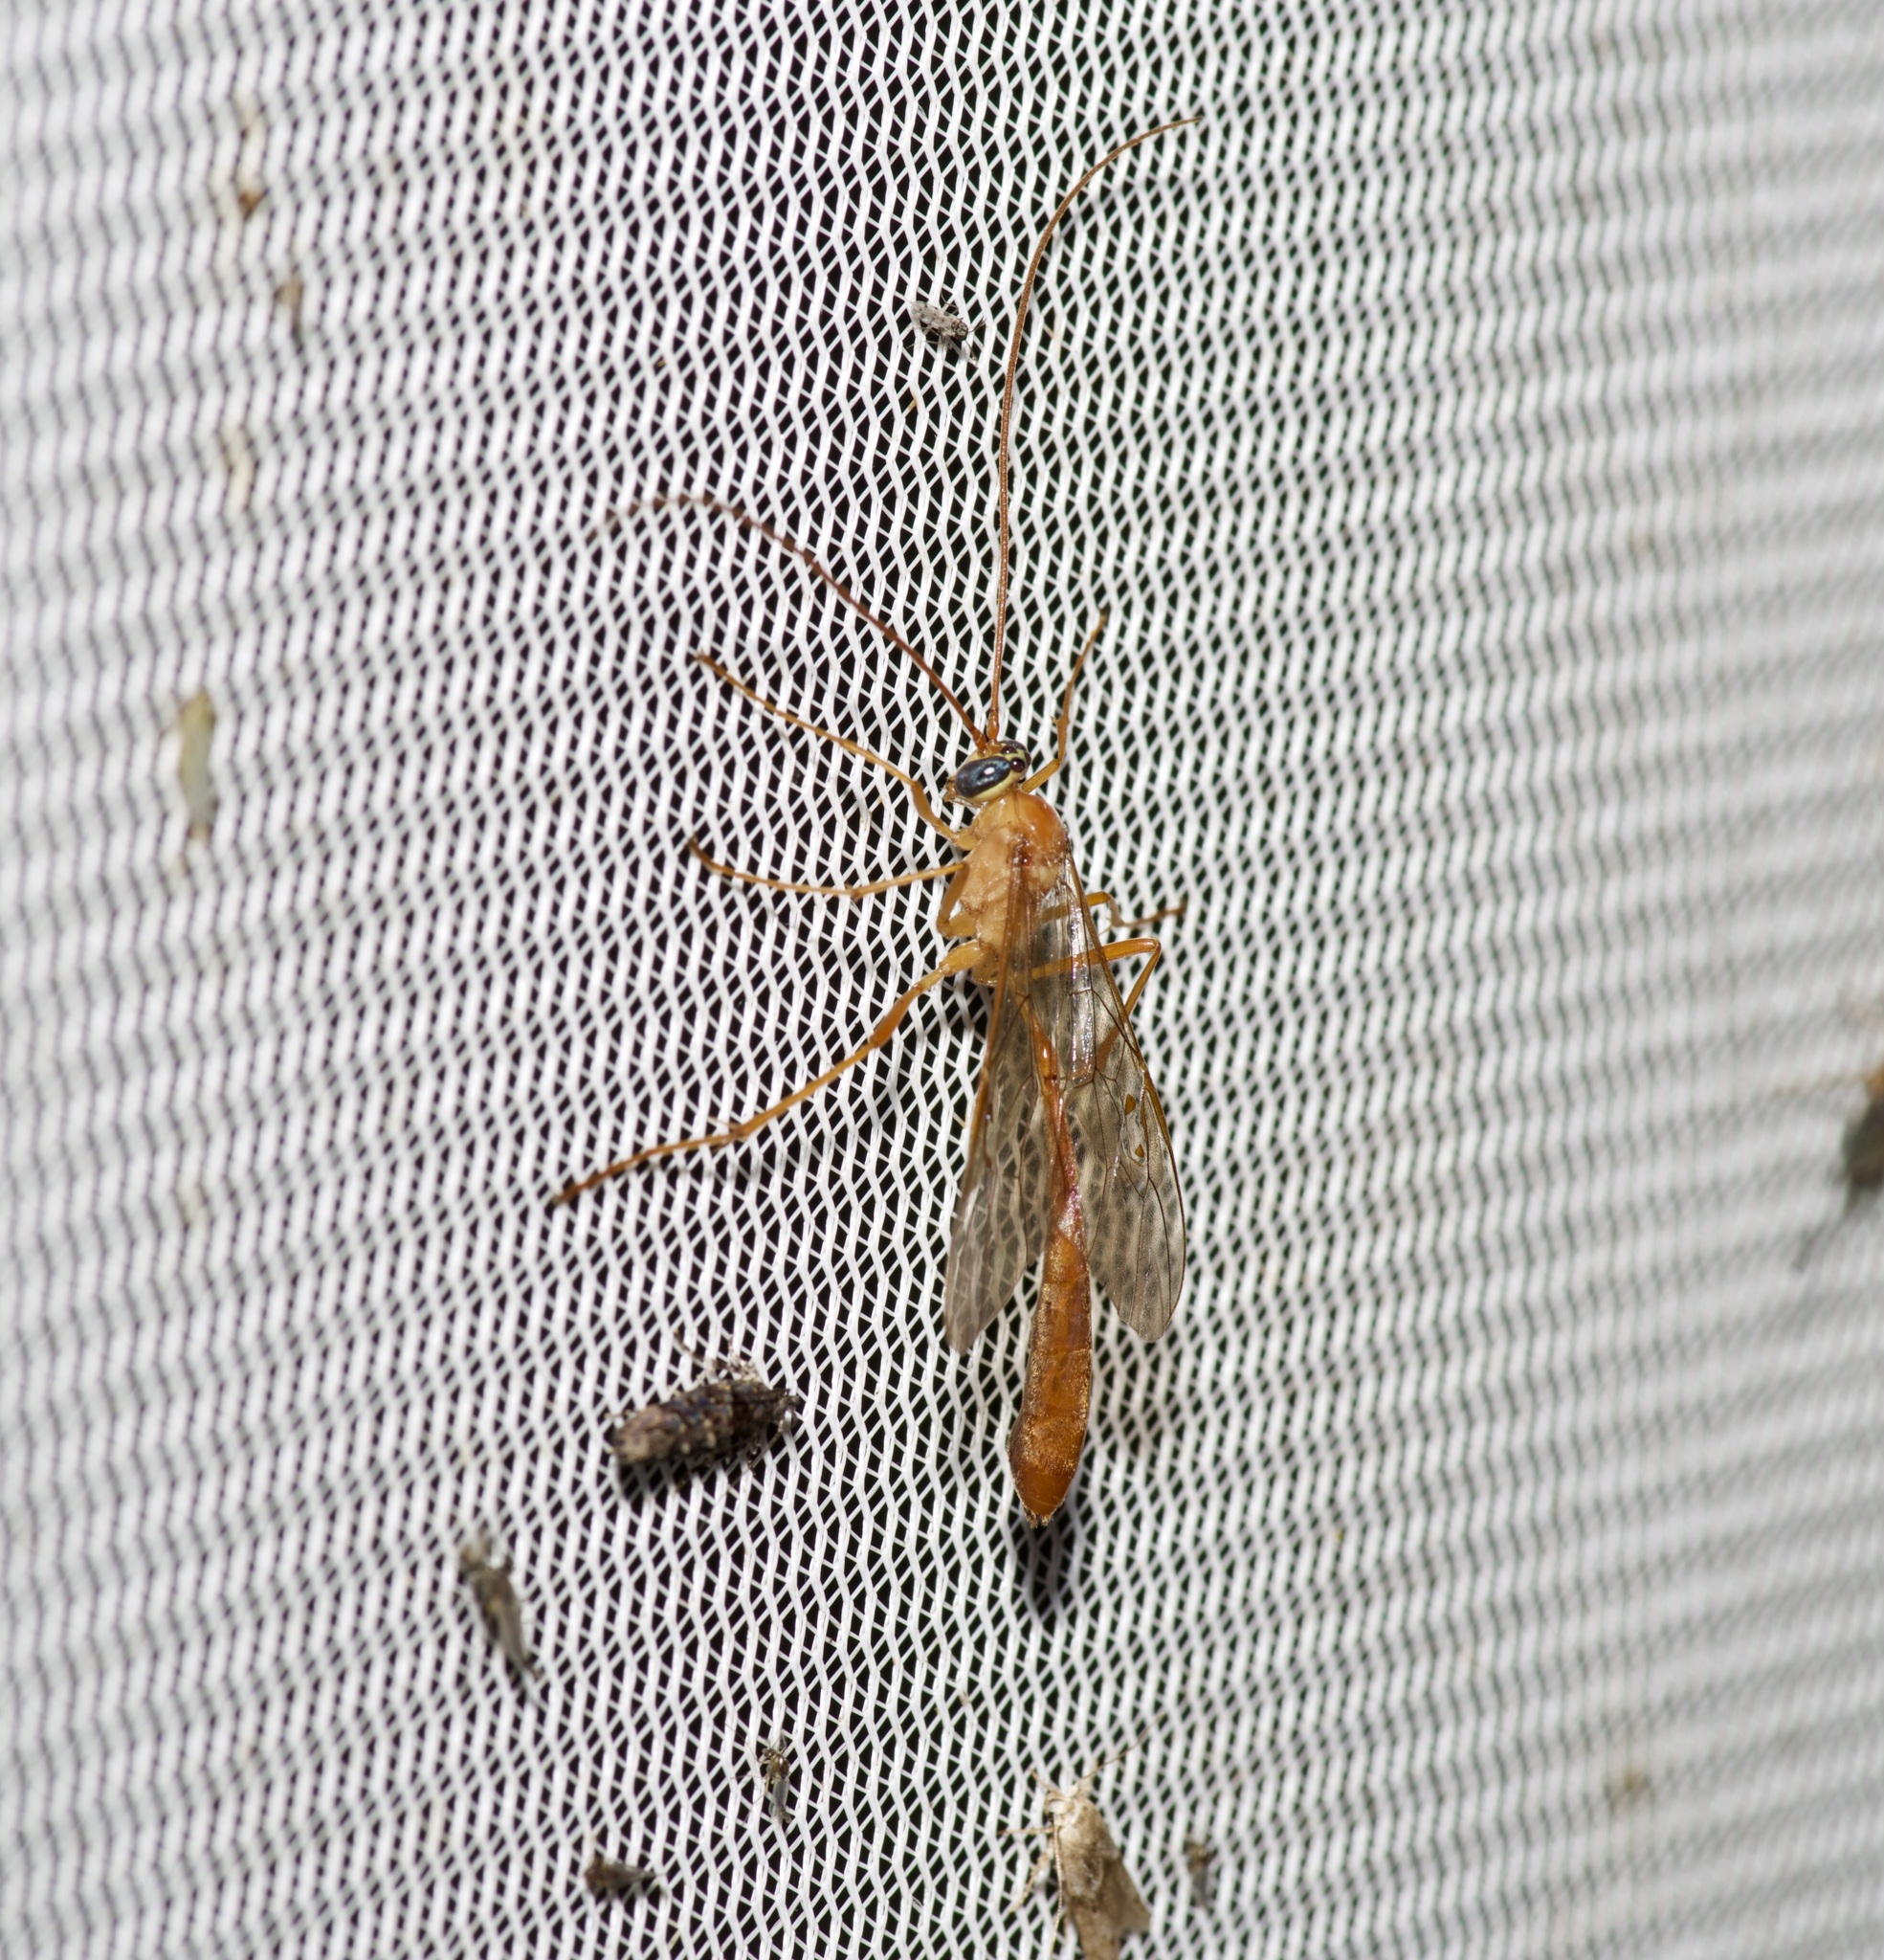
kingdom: Animalia
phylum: Arthropoda
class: Insecta
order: Hymenoptera
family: Ichneumonidae
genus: Enicospilus
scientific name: Enicospilus purgatus
